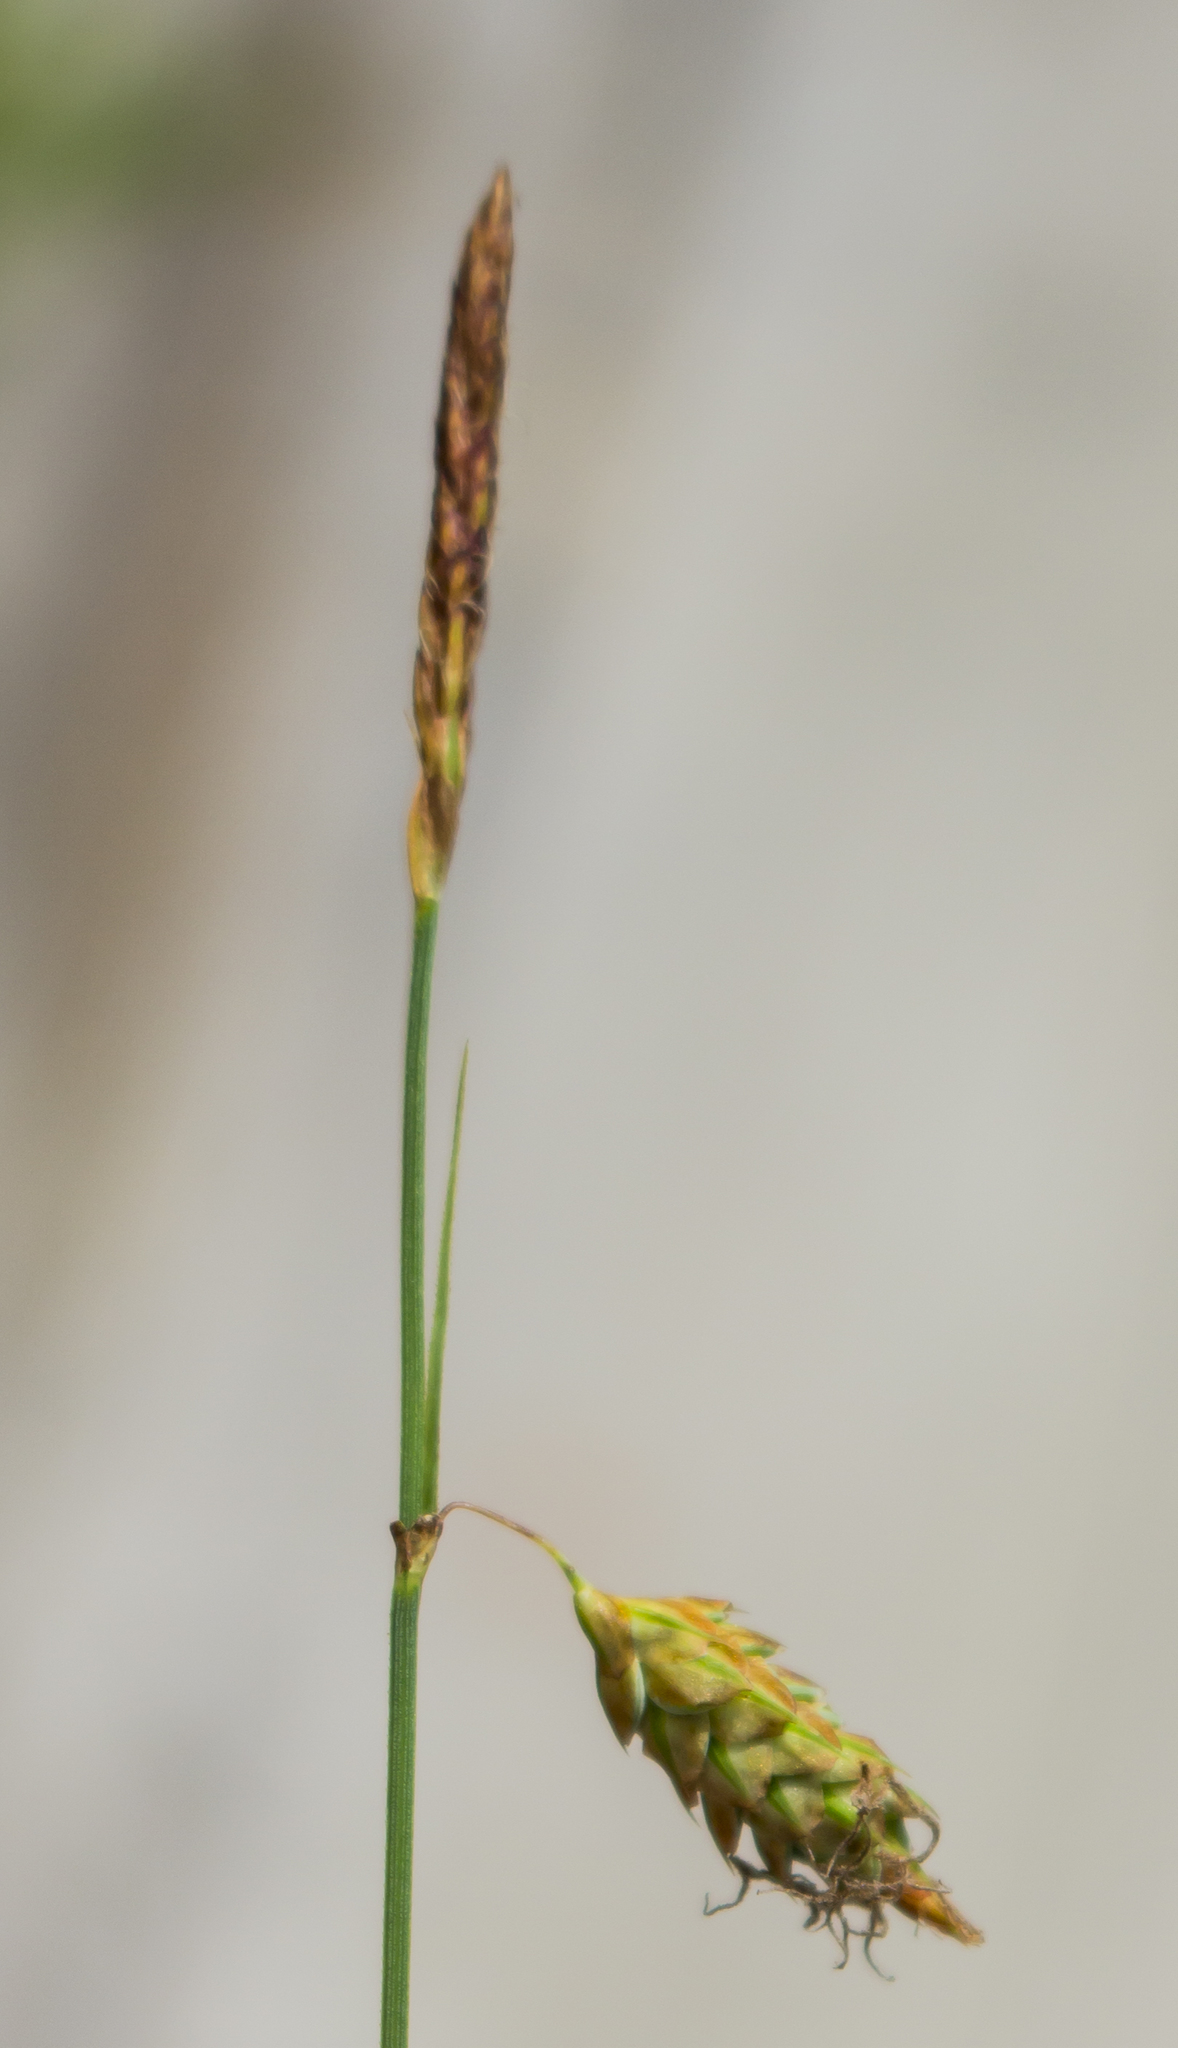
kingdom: Plantae
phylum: Tracheophyta
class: Liliopsida
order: Poales
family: Cyperaceae
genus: Carex
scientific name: Carex limosa
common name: Bog sedge
